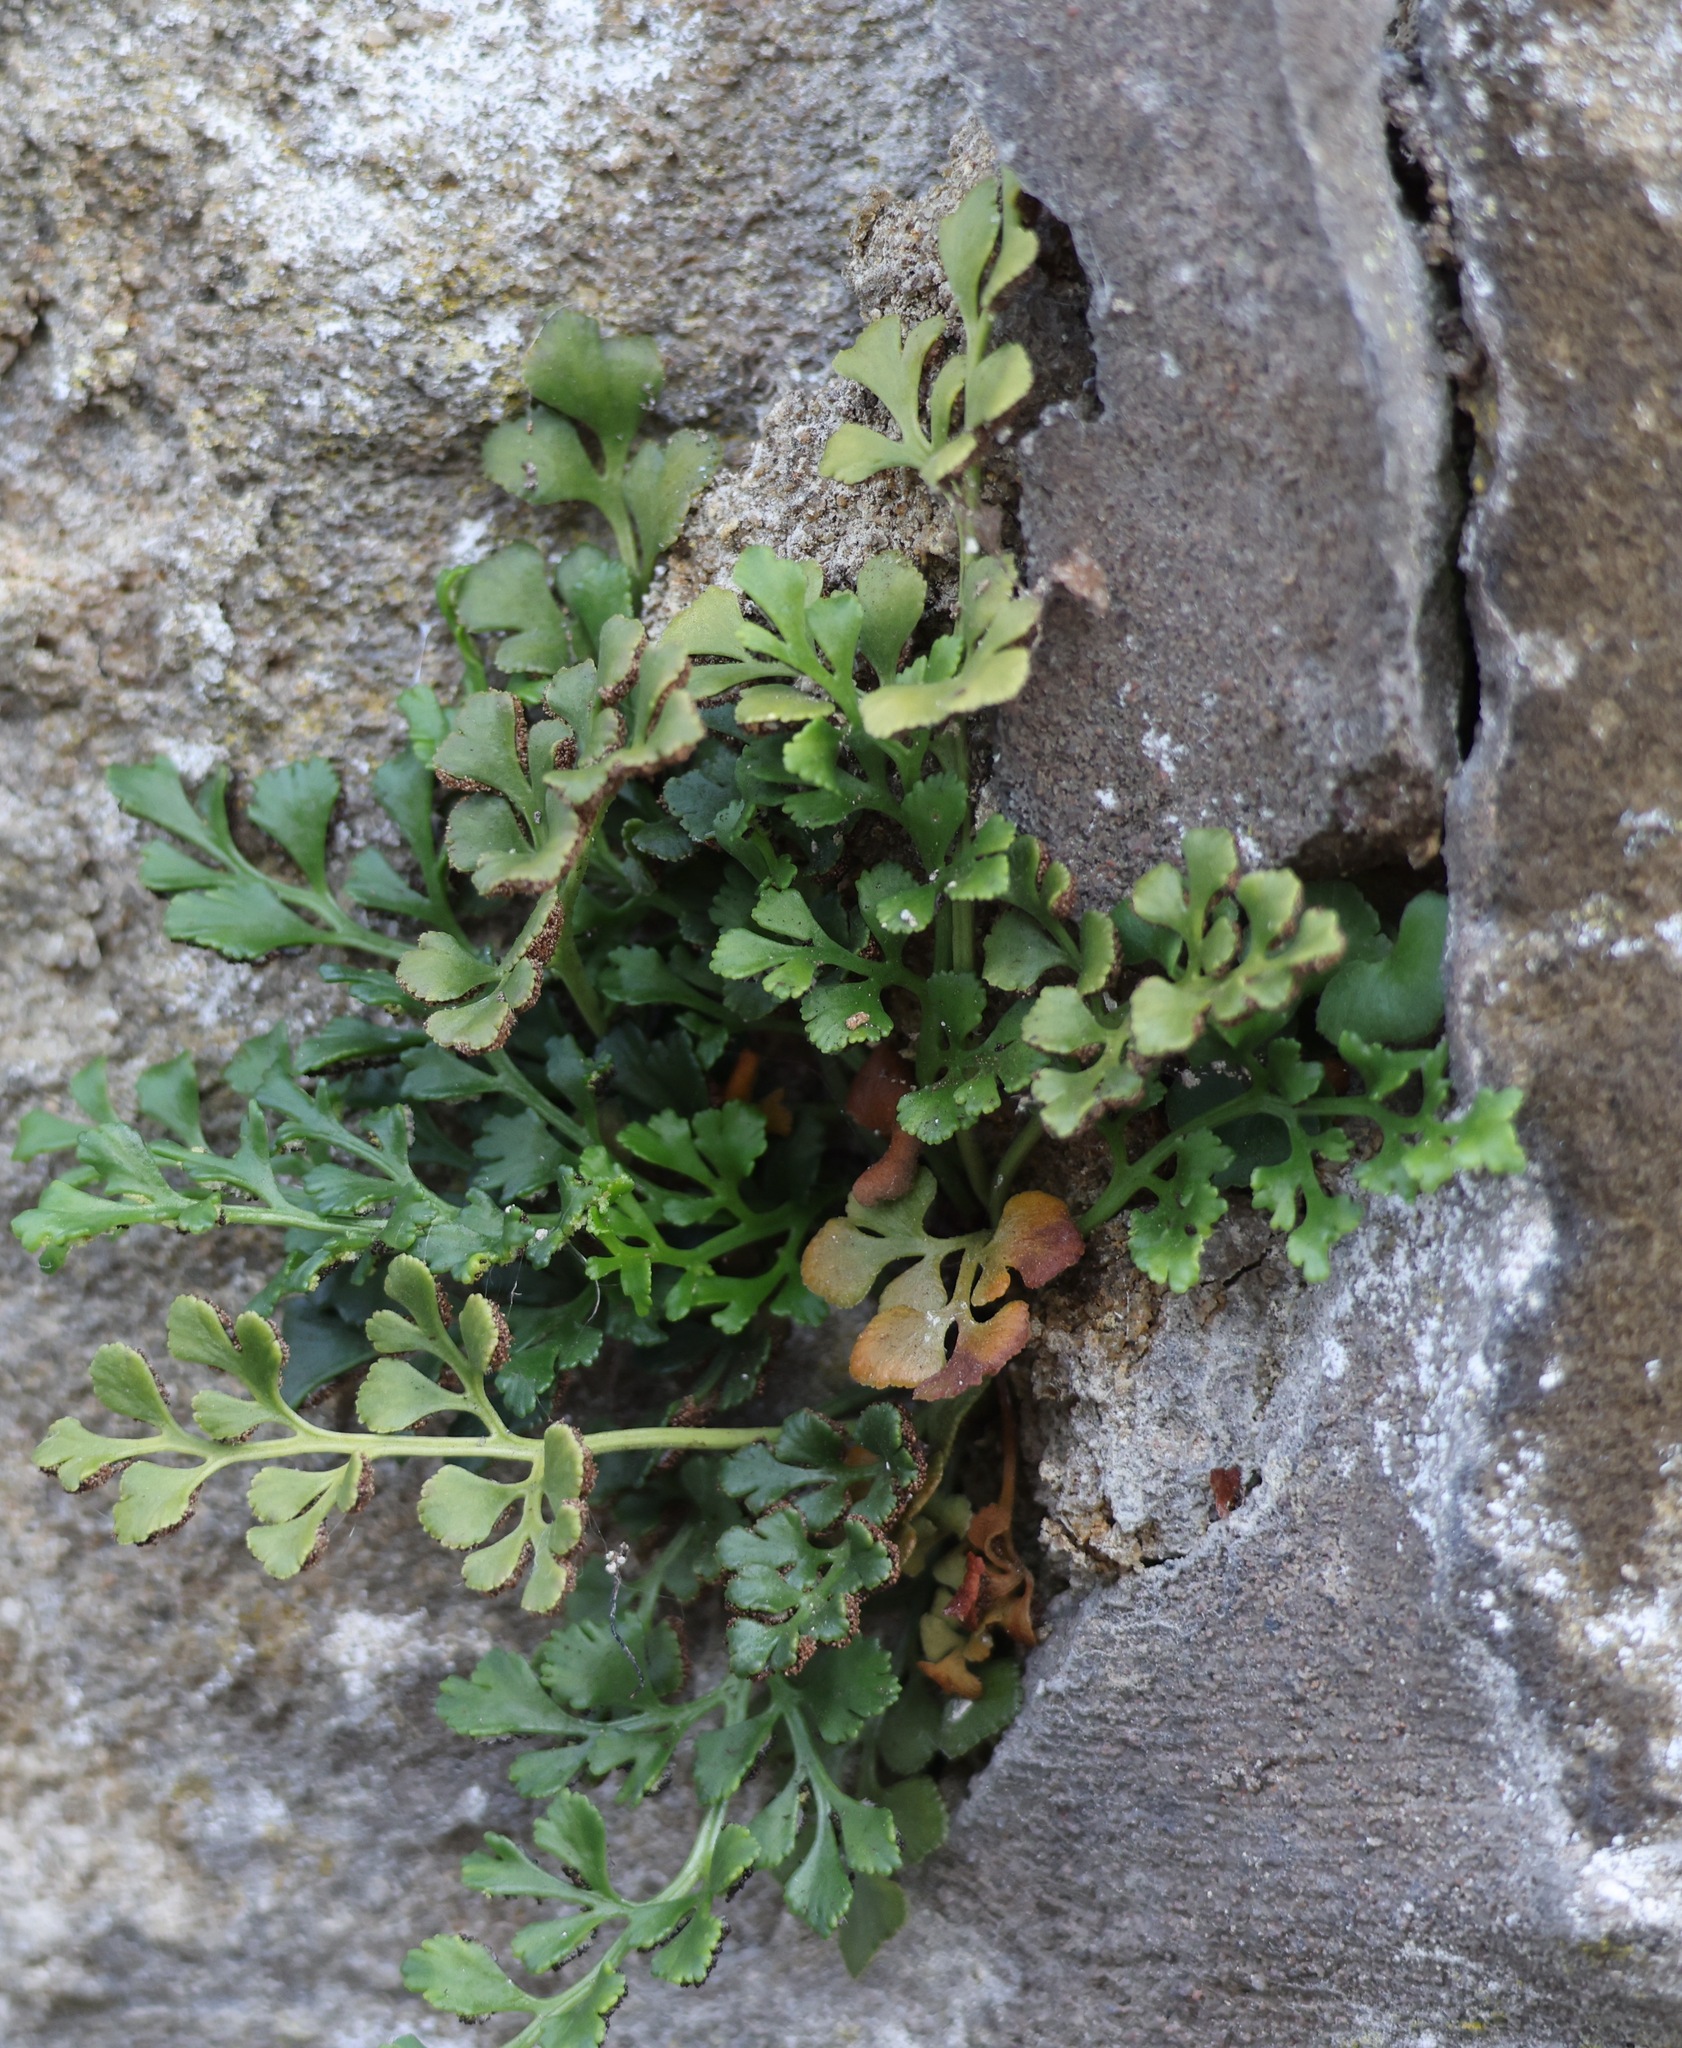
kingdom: Plantae
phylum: Tracheophyta
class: Polypodiopsida
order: Polypodiales
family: Aspleniaceae
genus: Asplenium
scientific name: Asplenium ruta-muraria
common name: Wall-rue
